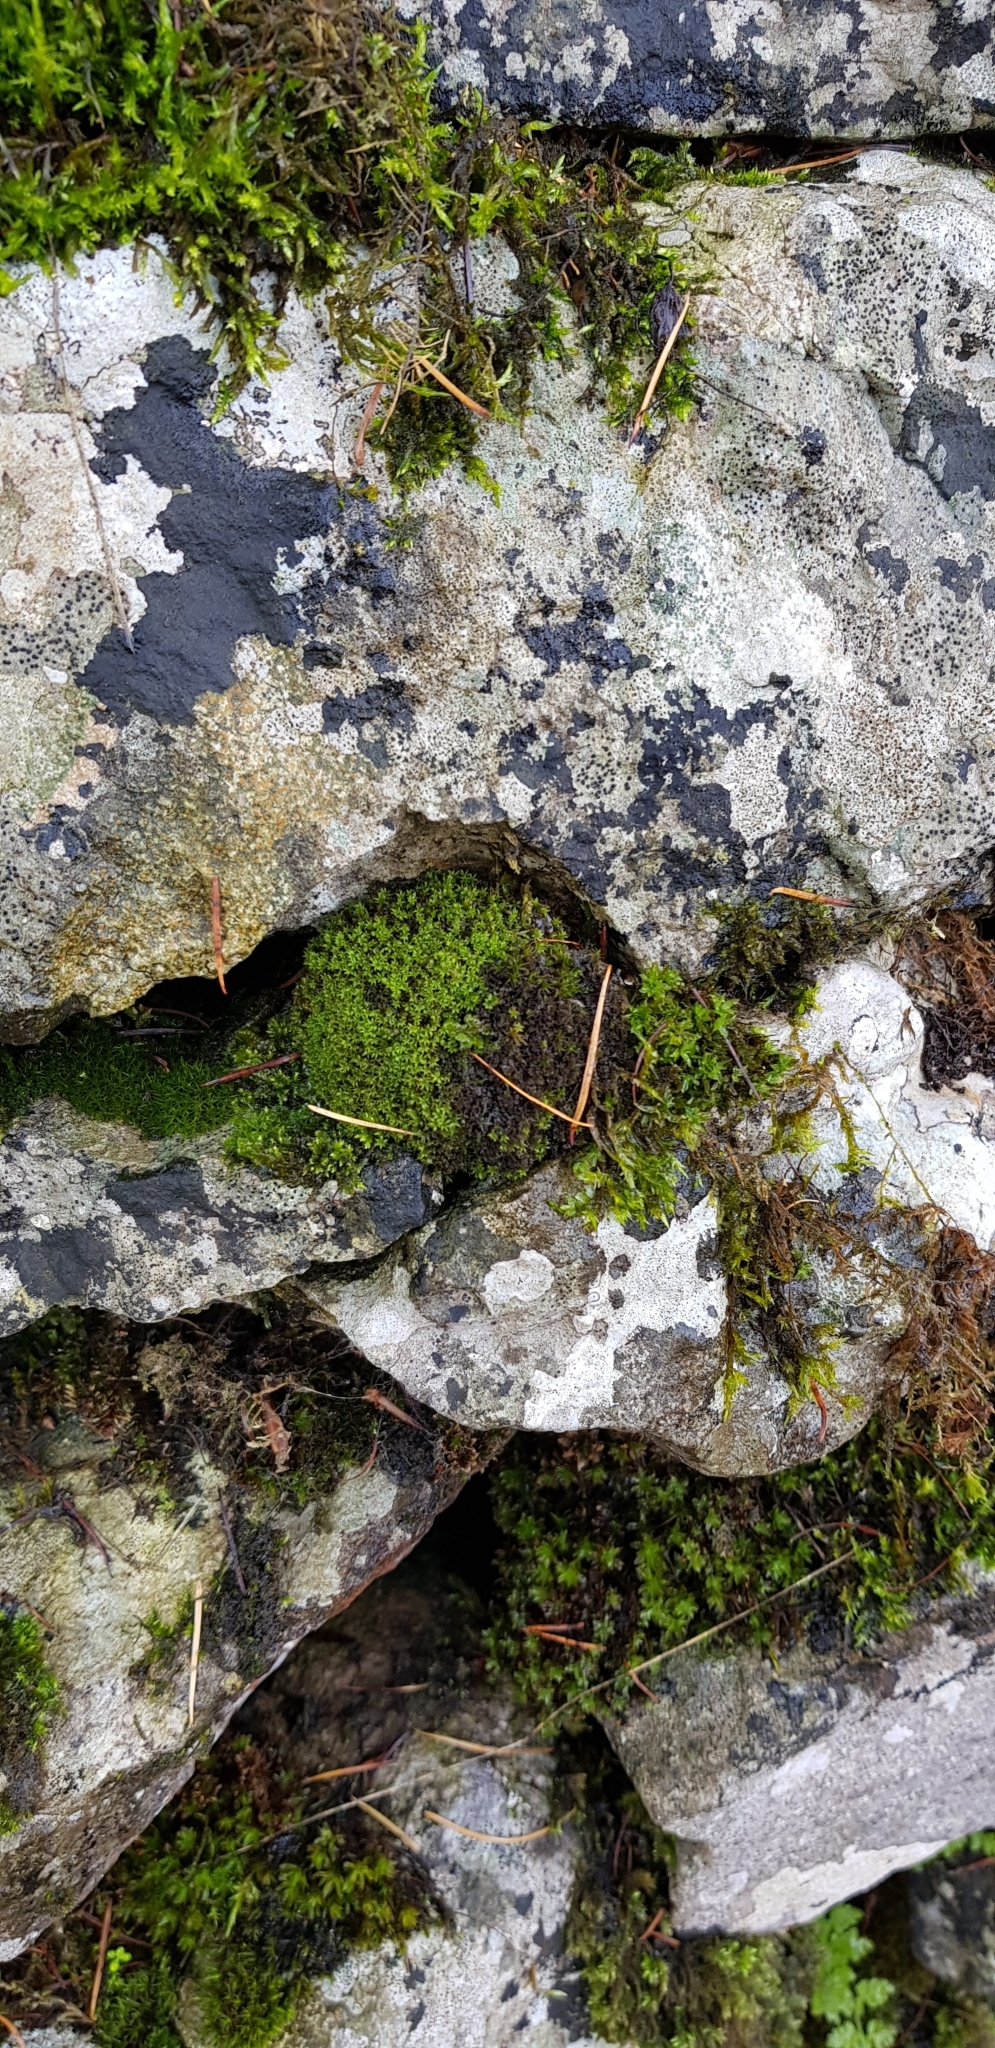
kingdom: Plantae
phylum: Bryophyta
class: Bryopsida
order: Orthotrichales
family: Orthotrichaceae
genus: Zygodon
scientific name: Zygodon viridissimus
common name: Green yoke moss
